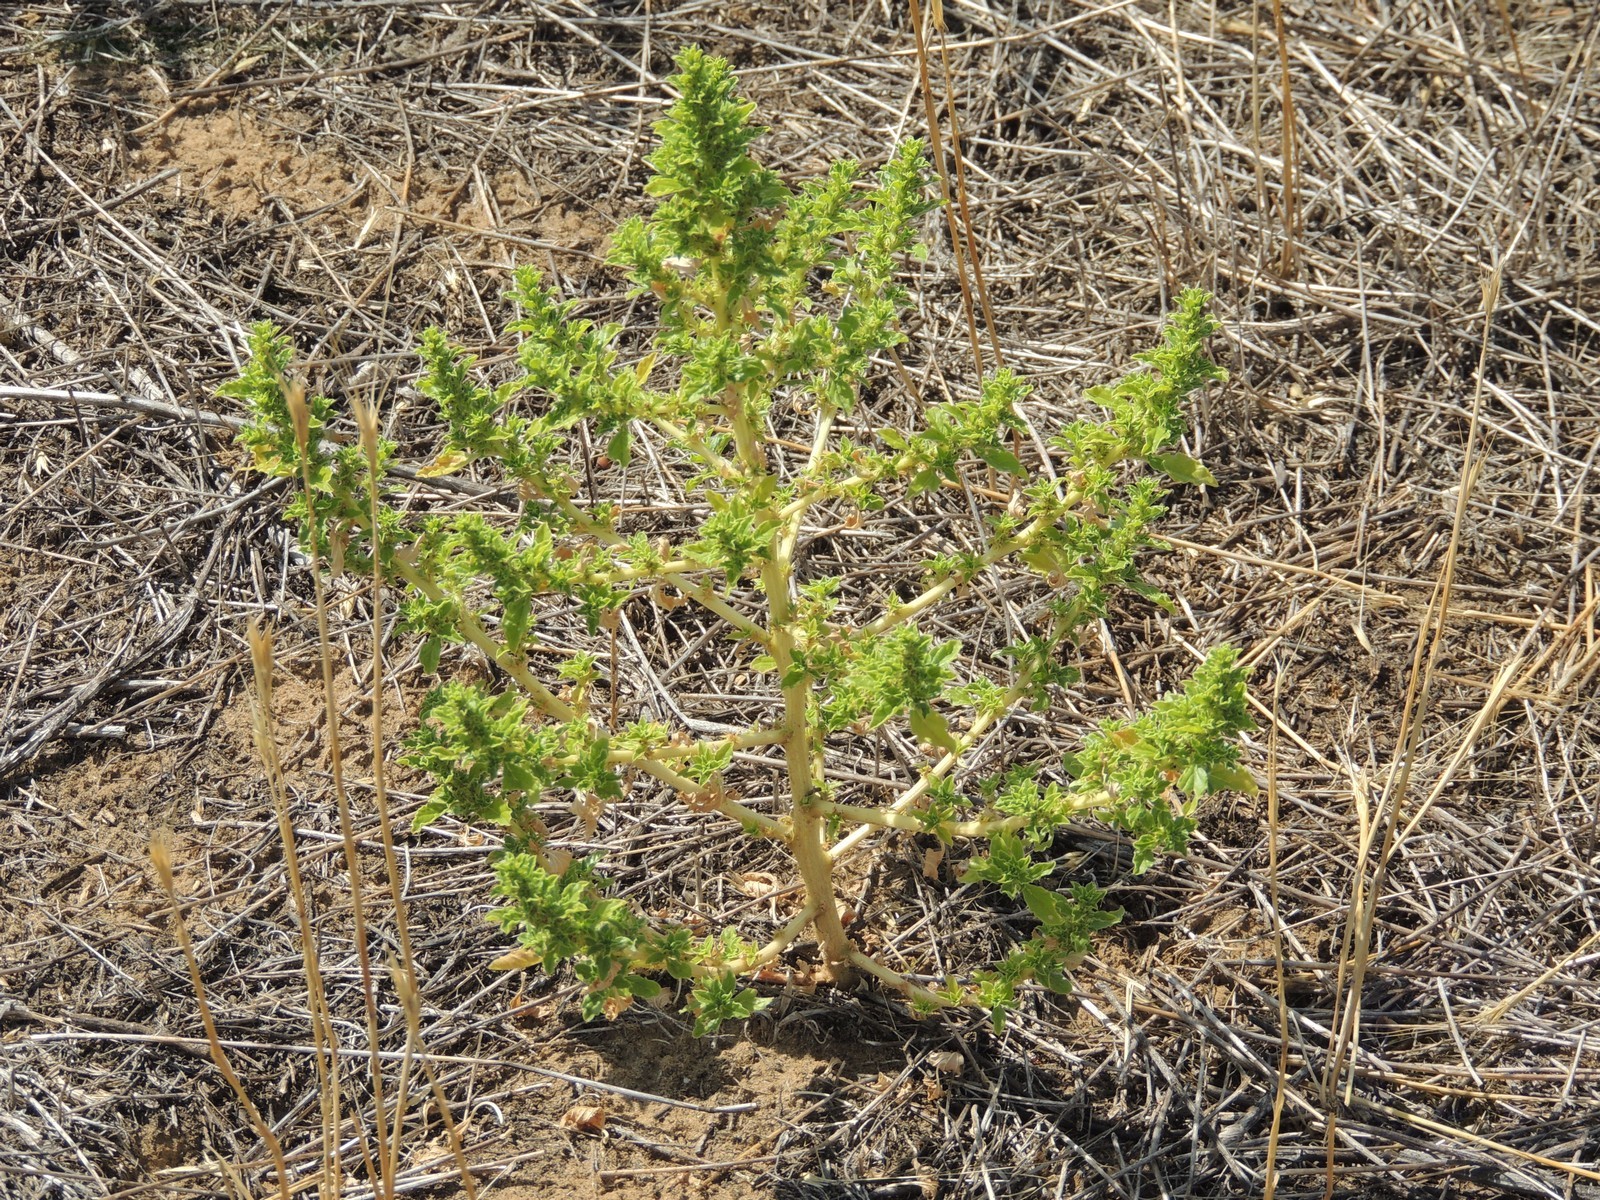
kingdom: Plantae
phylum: Tracheophyta
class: Magnoliopsida
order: Caryophyllales
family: Amaranthaceae
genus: Amaranthus
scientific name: Amaranthus albus
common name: White pigweed
